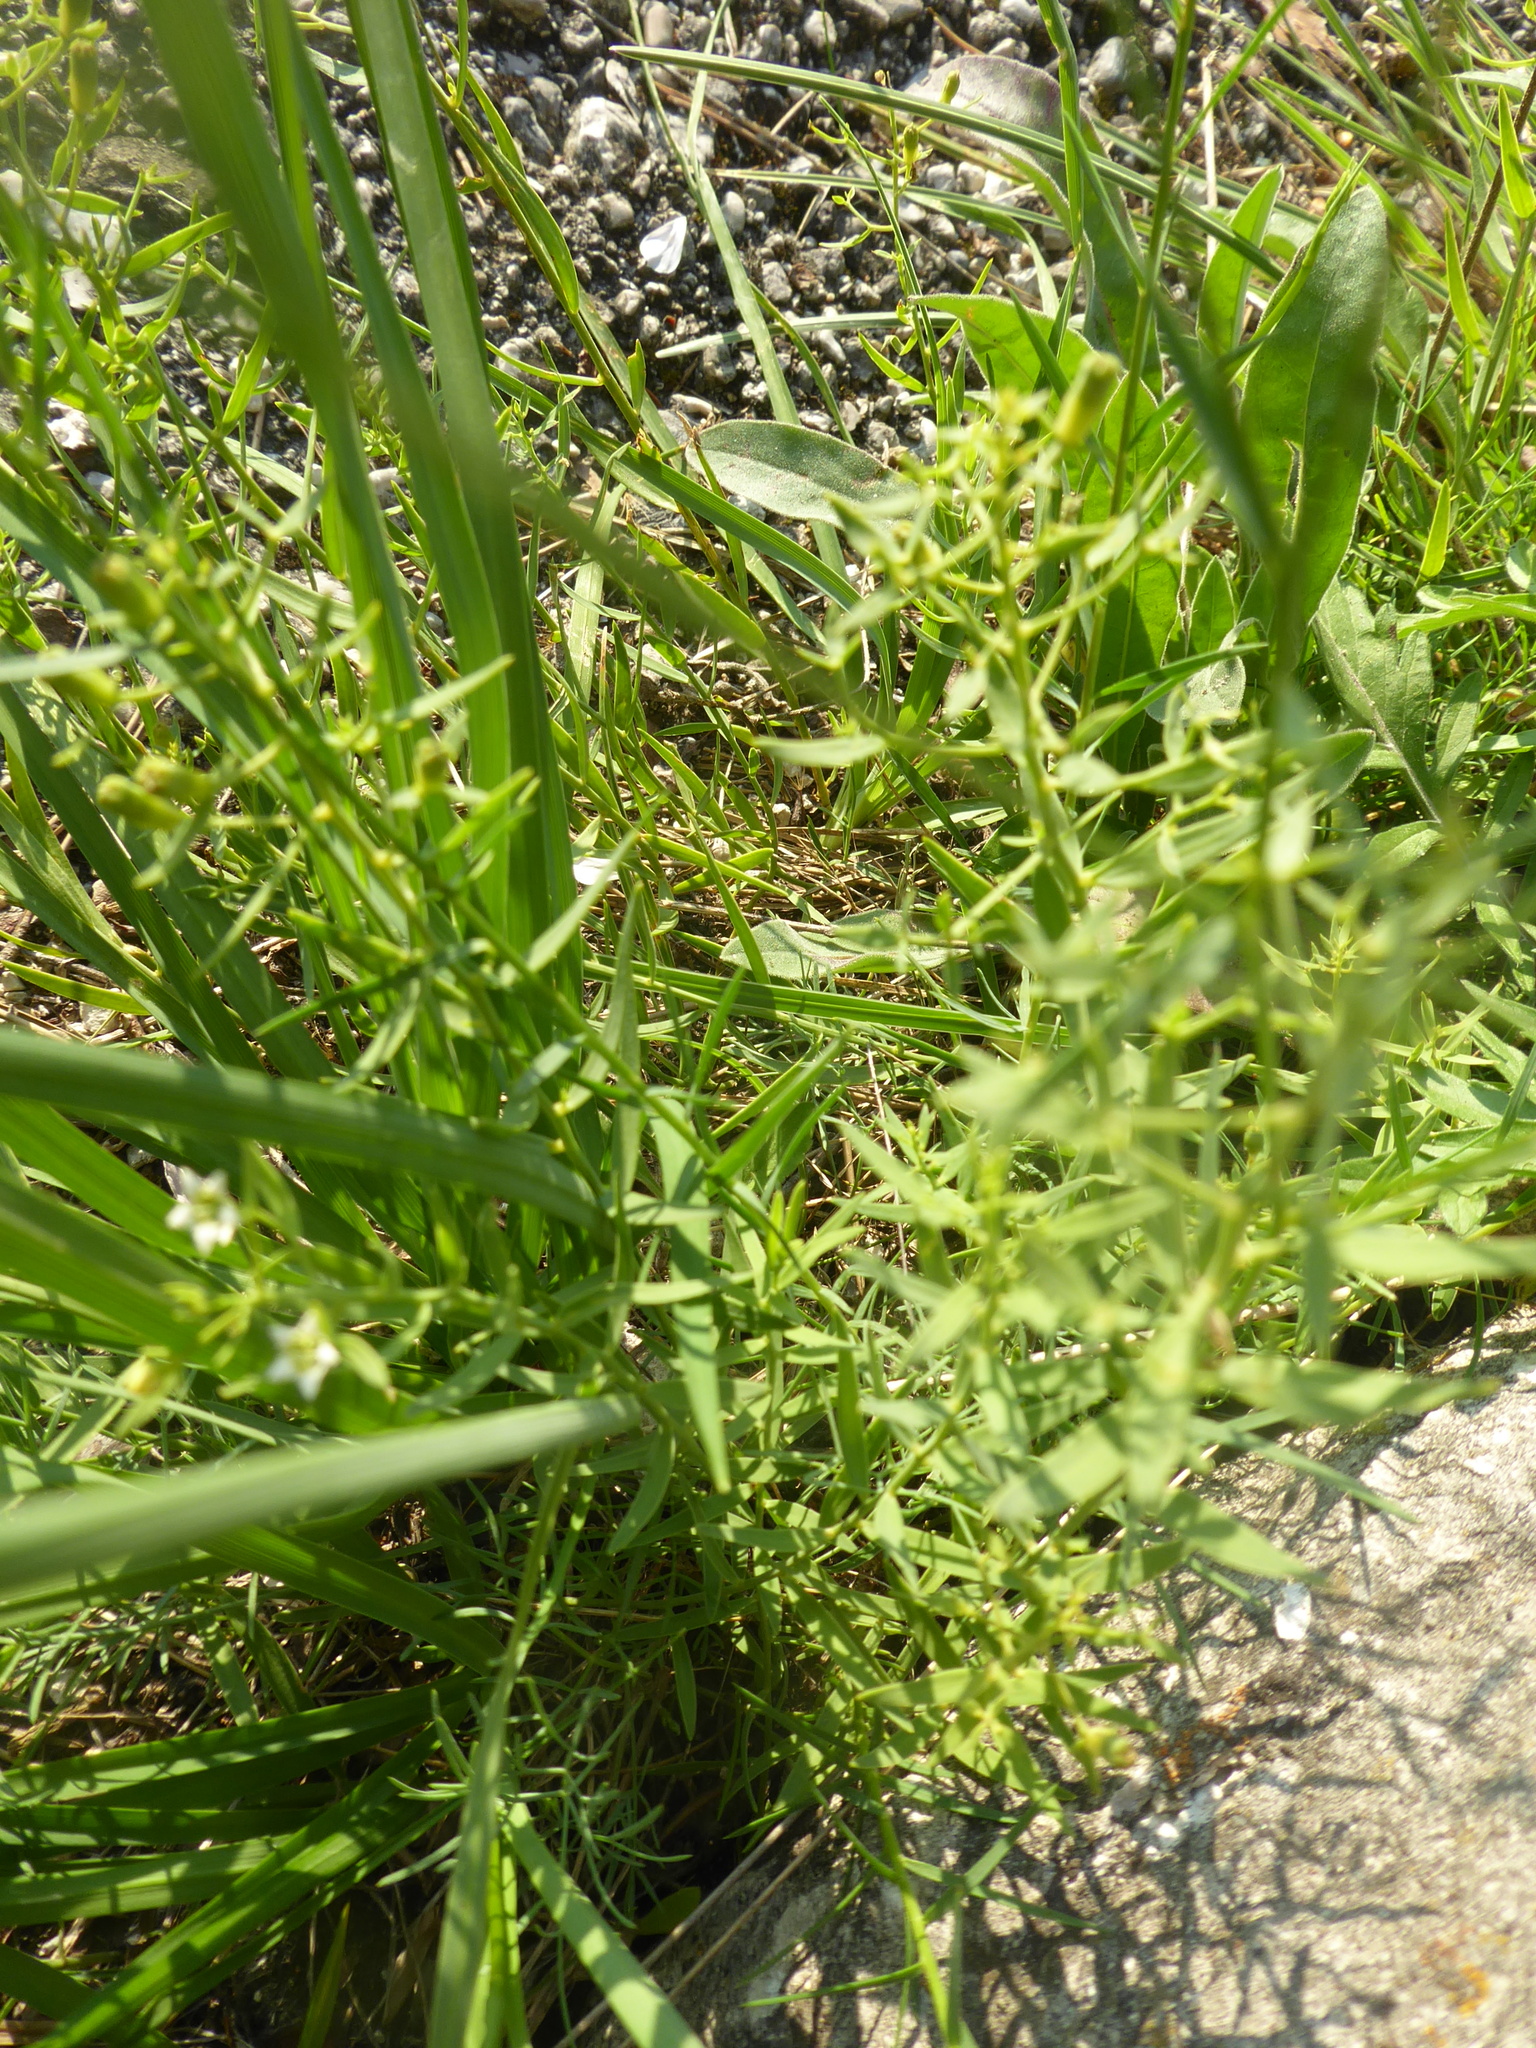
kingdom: Plantae
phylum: Tracheophyta
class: Magnoliopsida
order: Malpighiales
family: Linaceae
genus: Linum
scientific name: Linum tenuifolium
